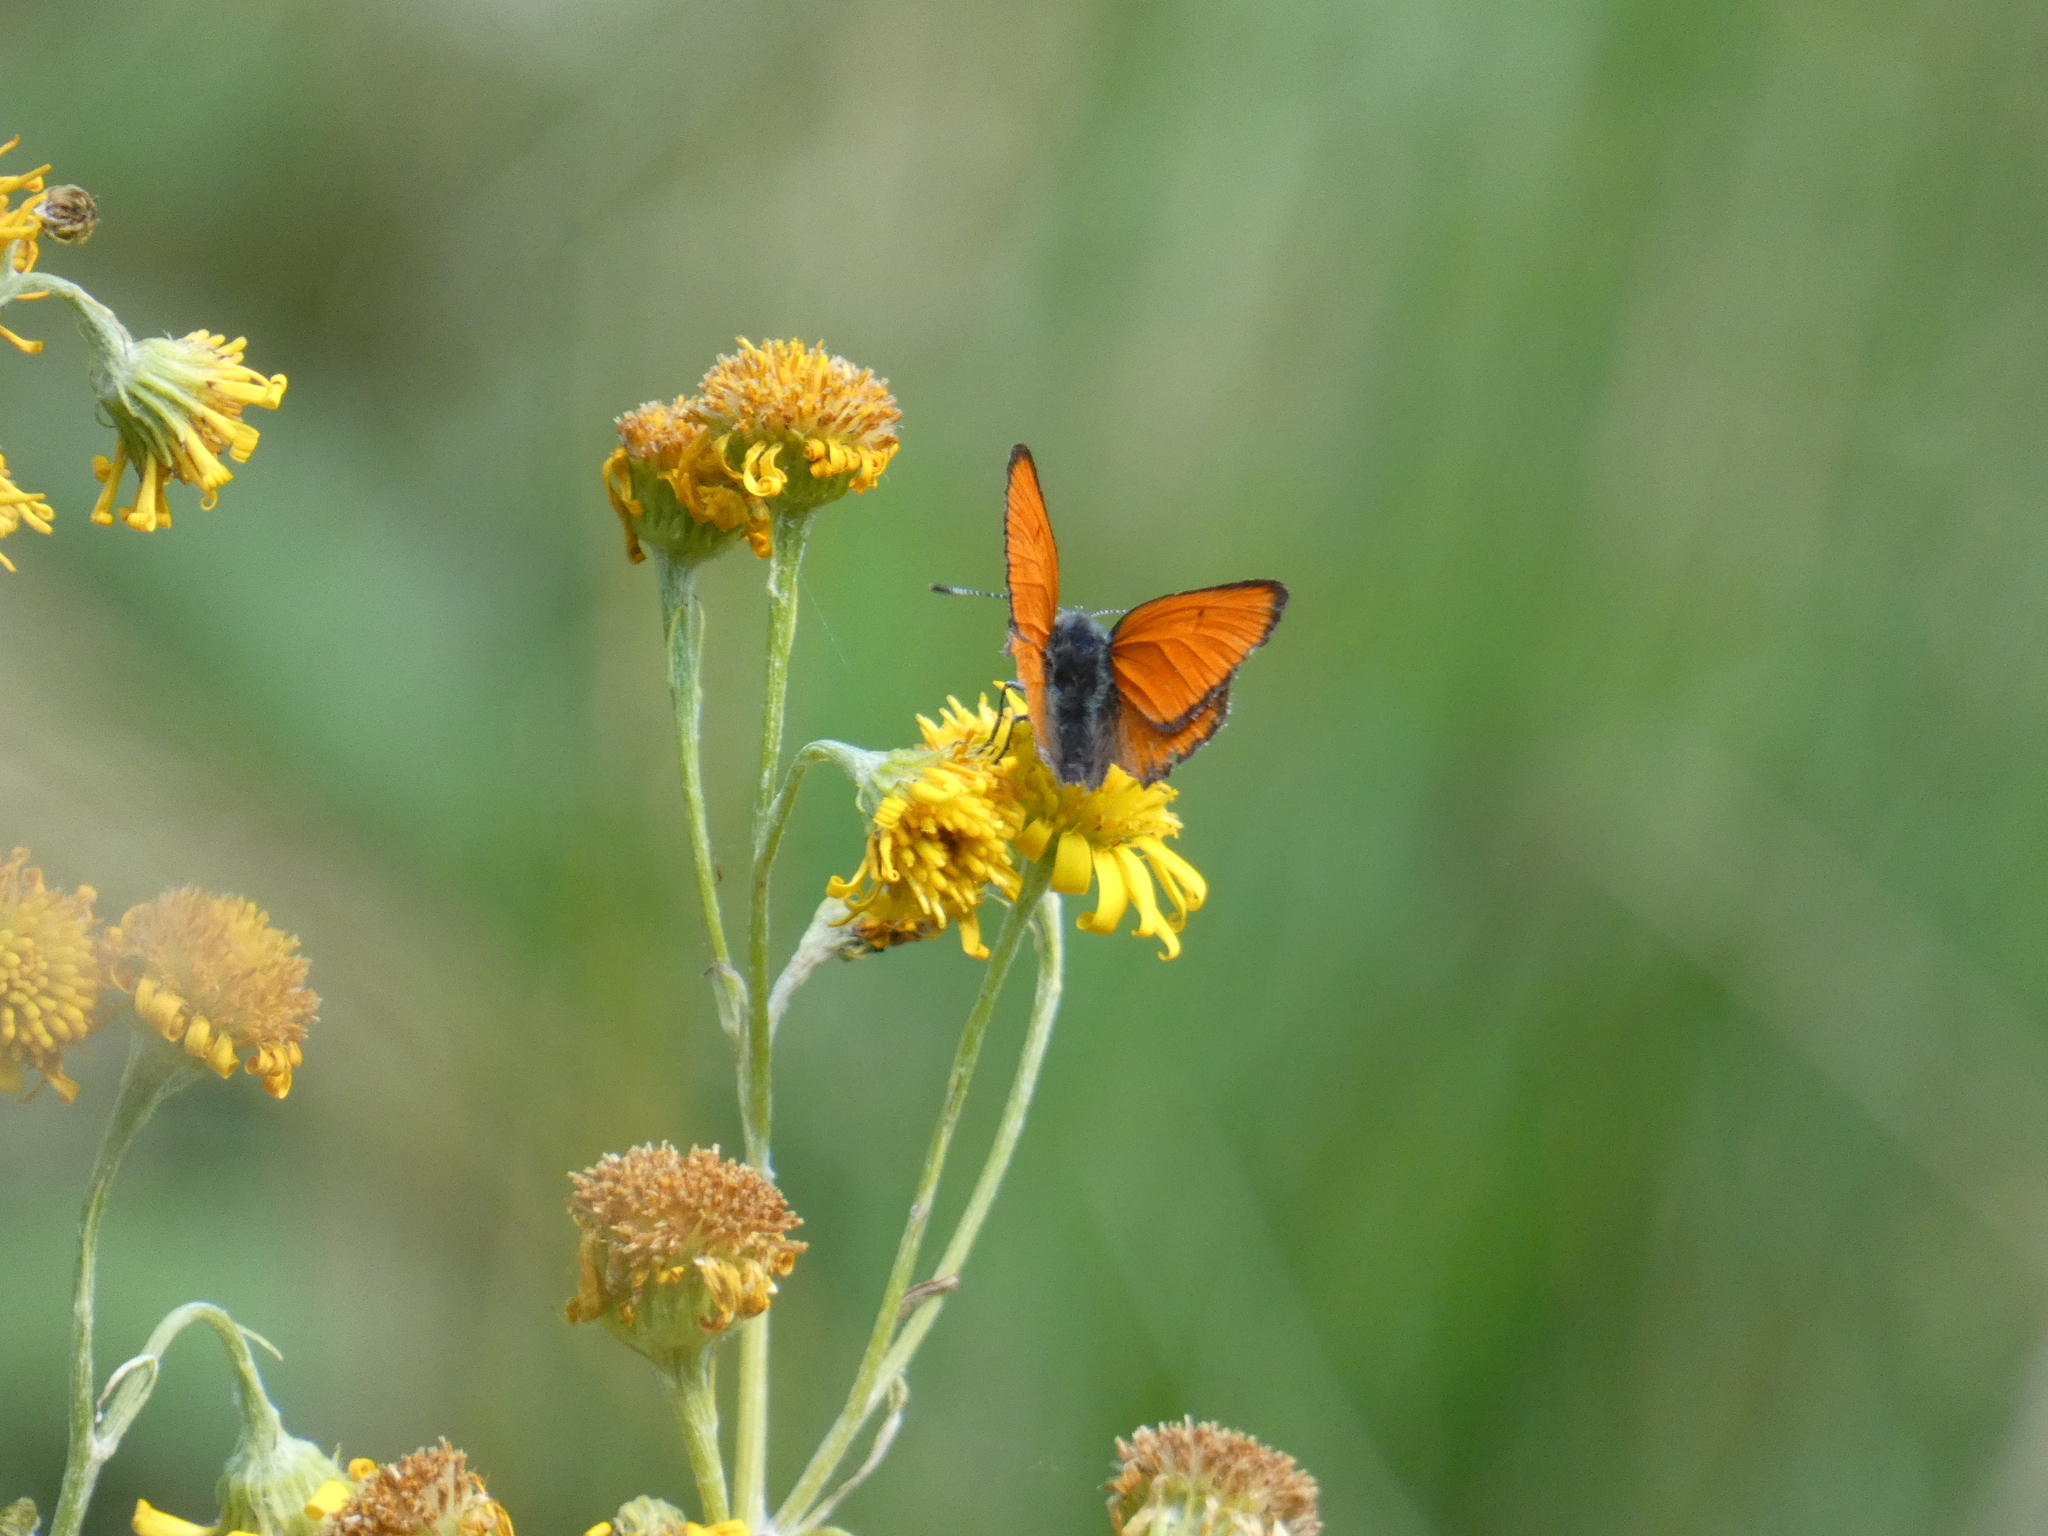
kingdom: Animalia
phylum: Arthropoda
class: Insecta
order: Lepidoptera
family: Lycaenidae
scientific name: Lycaenidae
